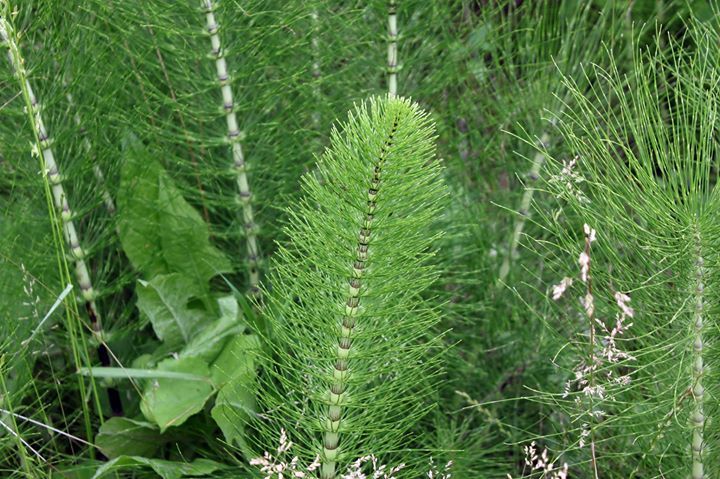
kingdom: Plantae
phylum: Tracheophyta
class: Polypodiopsida
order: Equisetales
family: Equisetaceae
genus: Equisetum
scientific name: Equisetum telmateia
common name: Great horsetail
